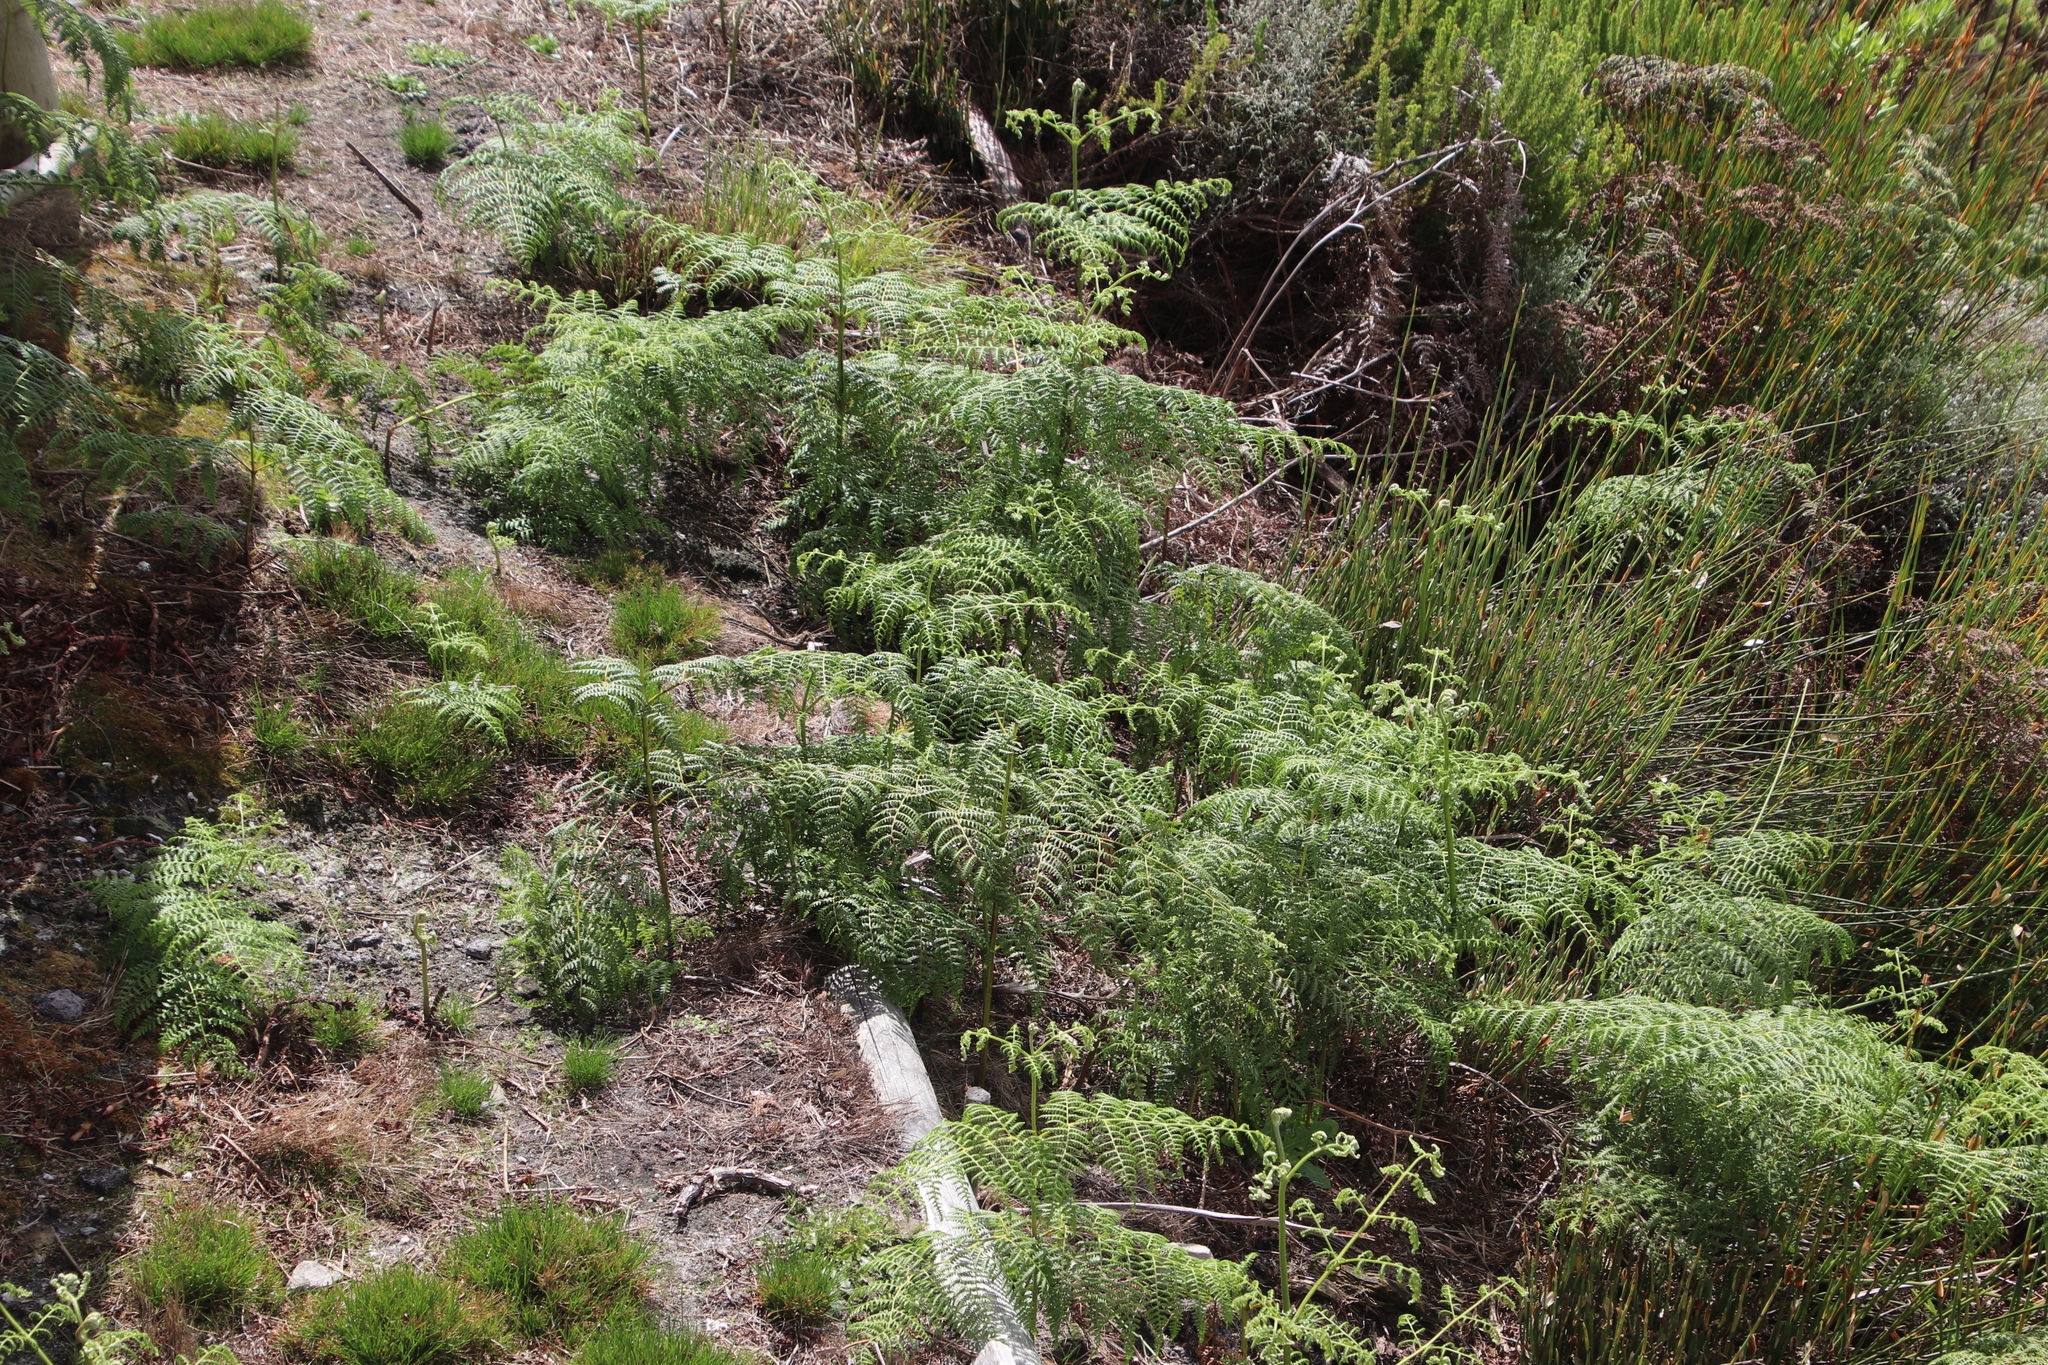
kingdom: Plantae
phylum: Tracheophyta
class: Polypodiopsida
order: Polypodiales
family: Dennstaedtiaceae
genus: Pteridium
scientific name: Pteridium aquilinum
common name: Bracken
